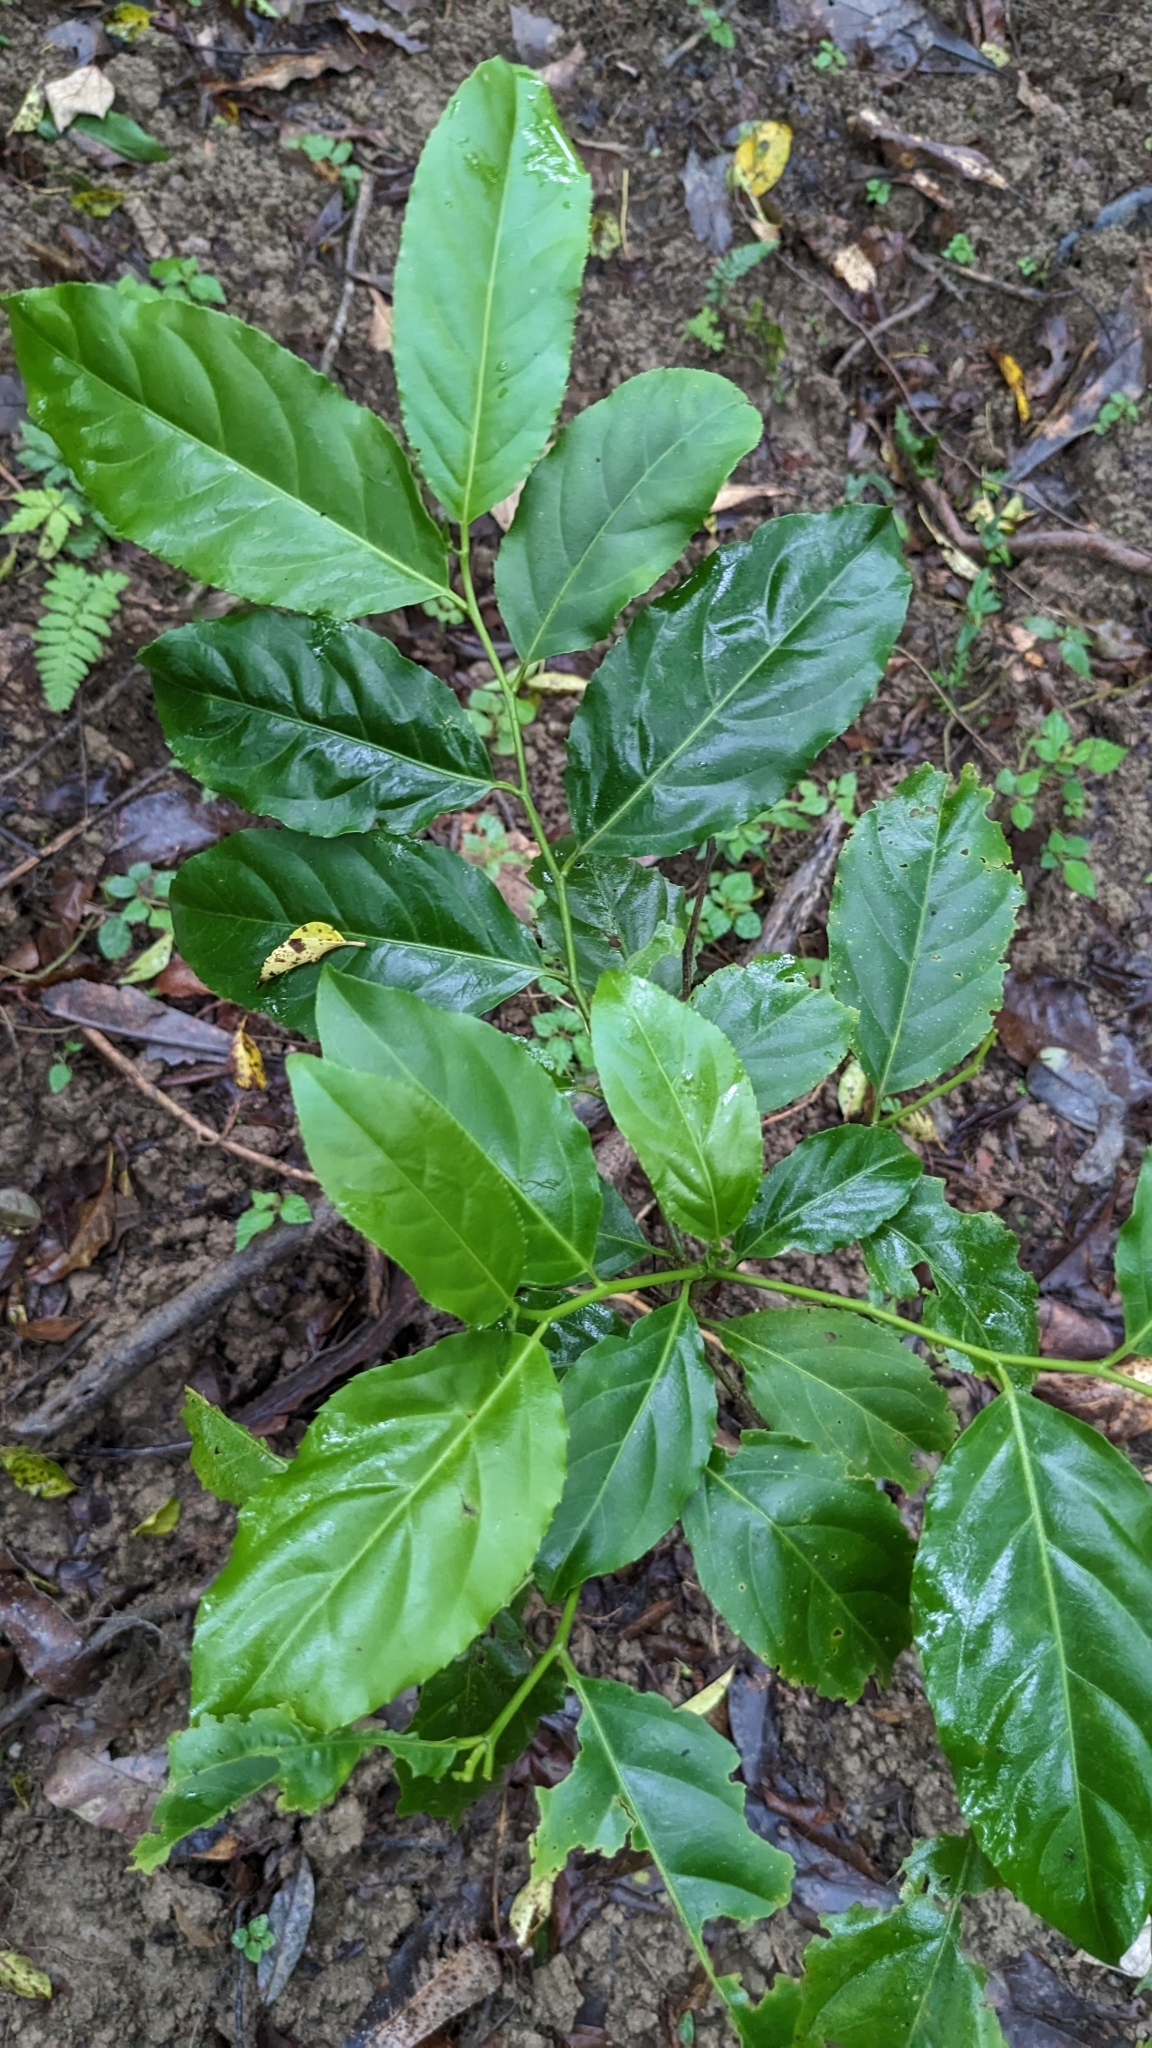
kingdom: Plantae
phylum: Tracheophyta
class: Magnoliopsida
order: Malpighiales
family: Salicaceae
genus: Casearia
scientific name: Casearia glomerata
